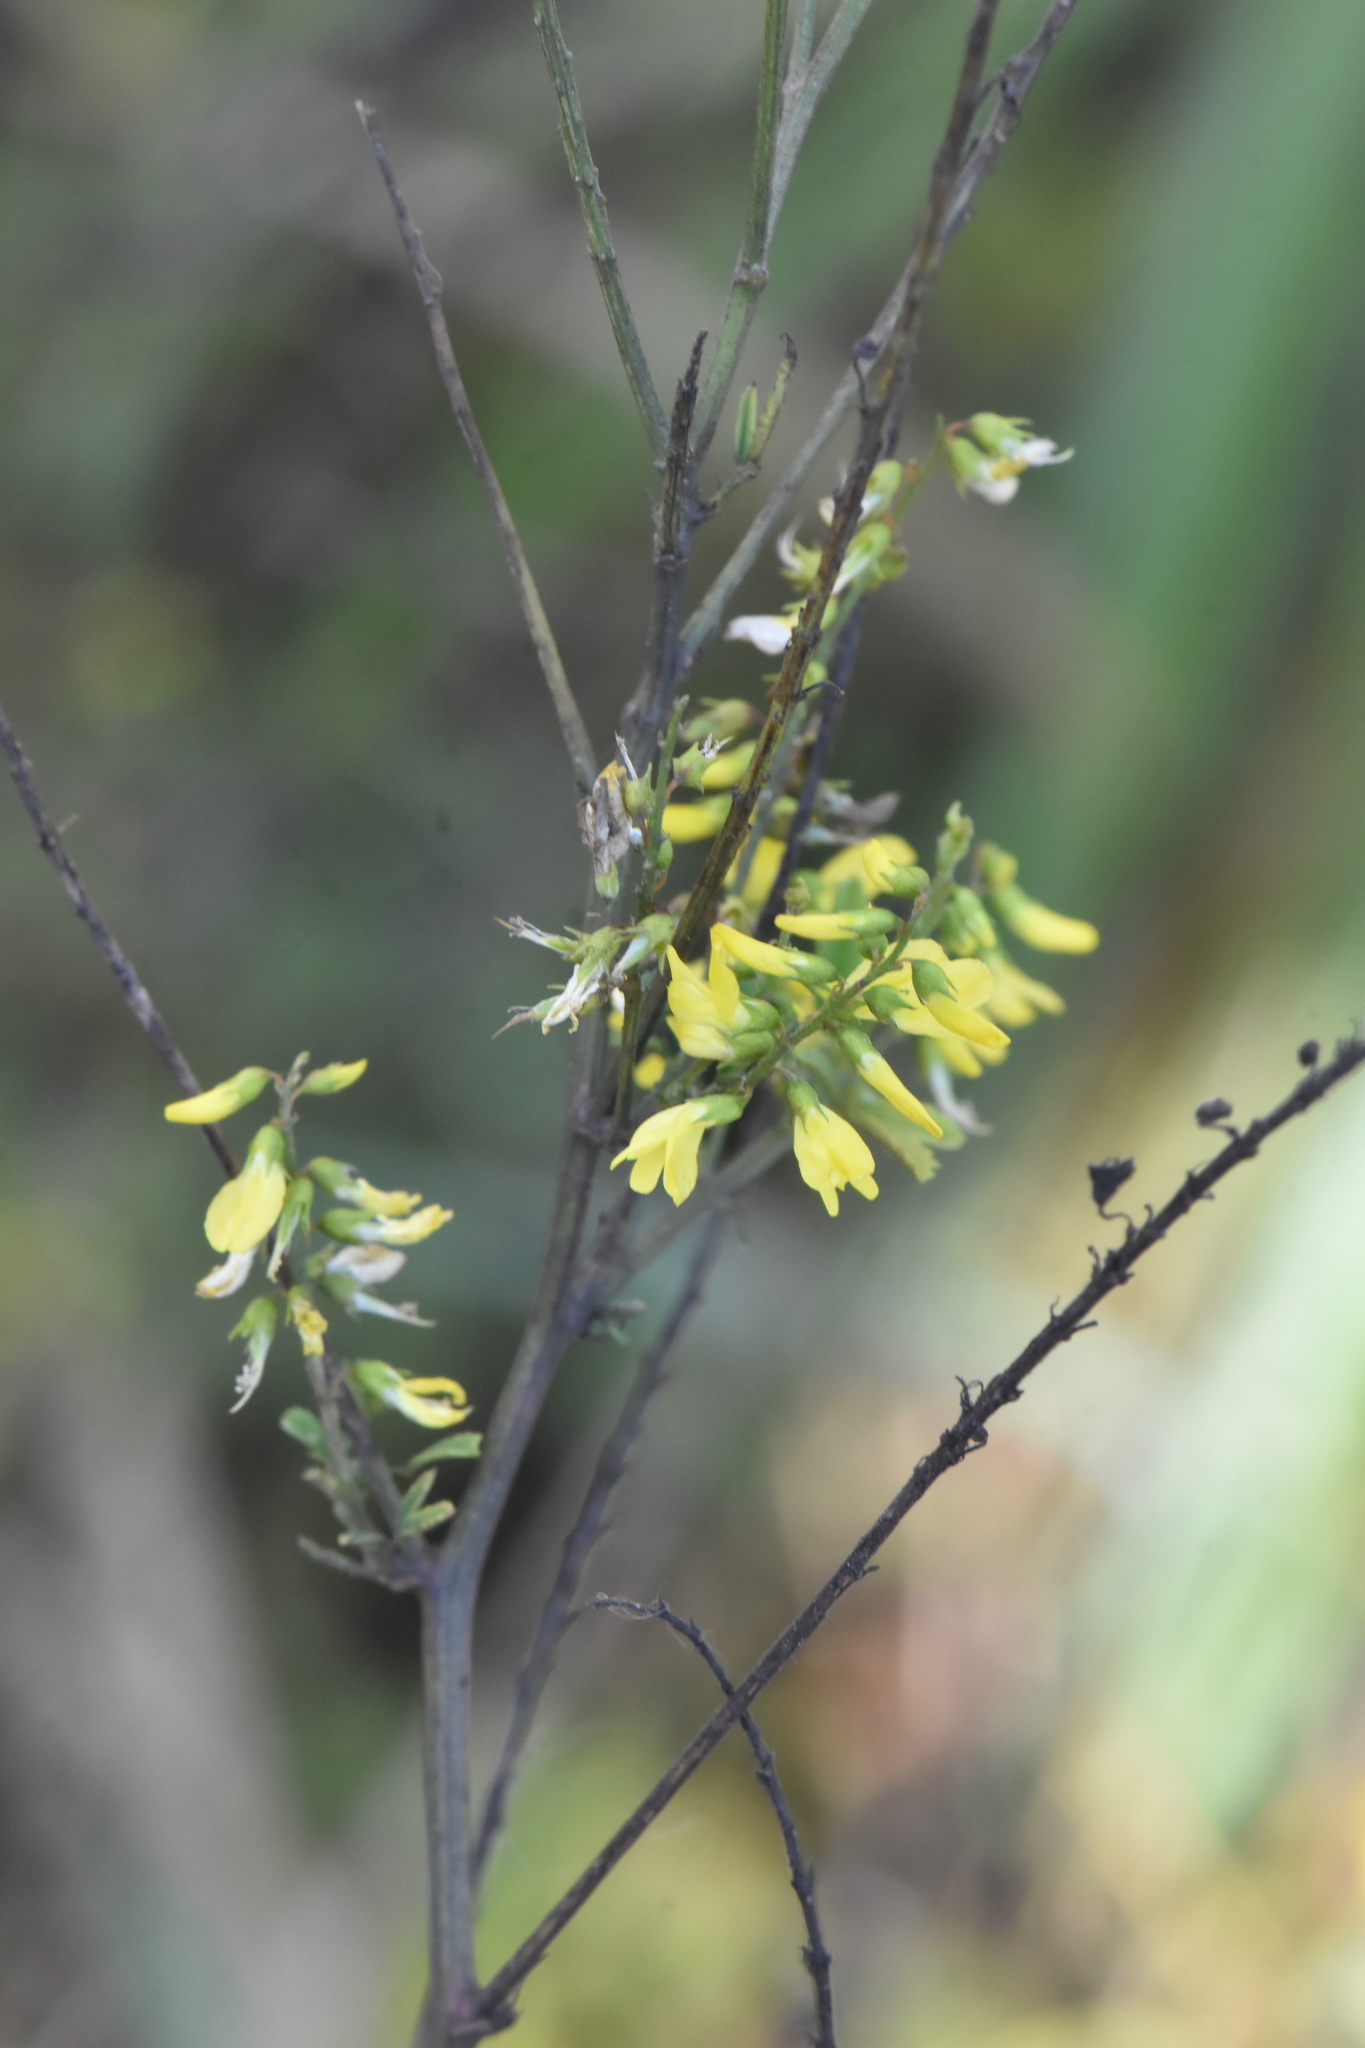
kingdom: Plantae
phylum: Tracheophyta
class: Magnoliopsida
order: Fabales
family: Fabaceae
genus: Melilotus
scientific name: Melilotus officinalis
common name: Sweetclover
